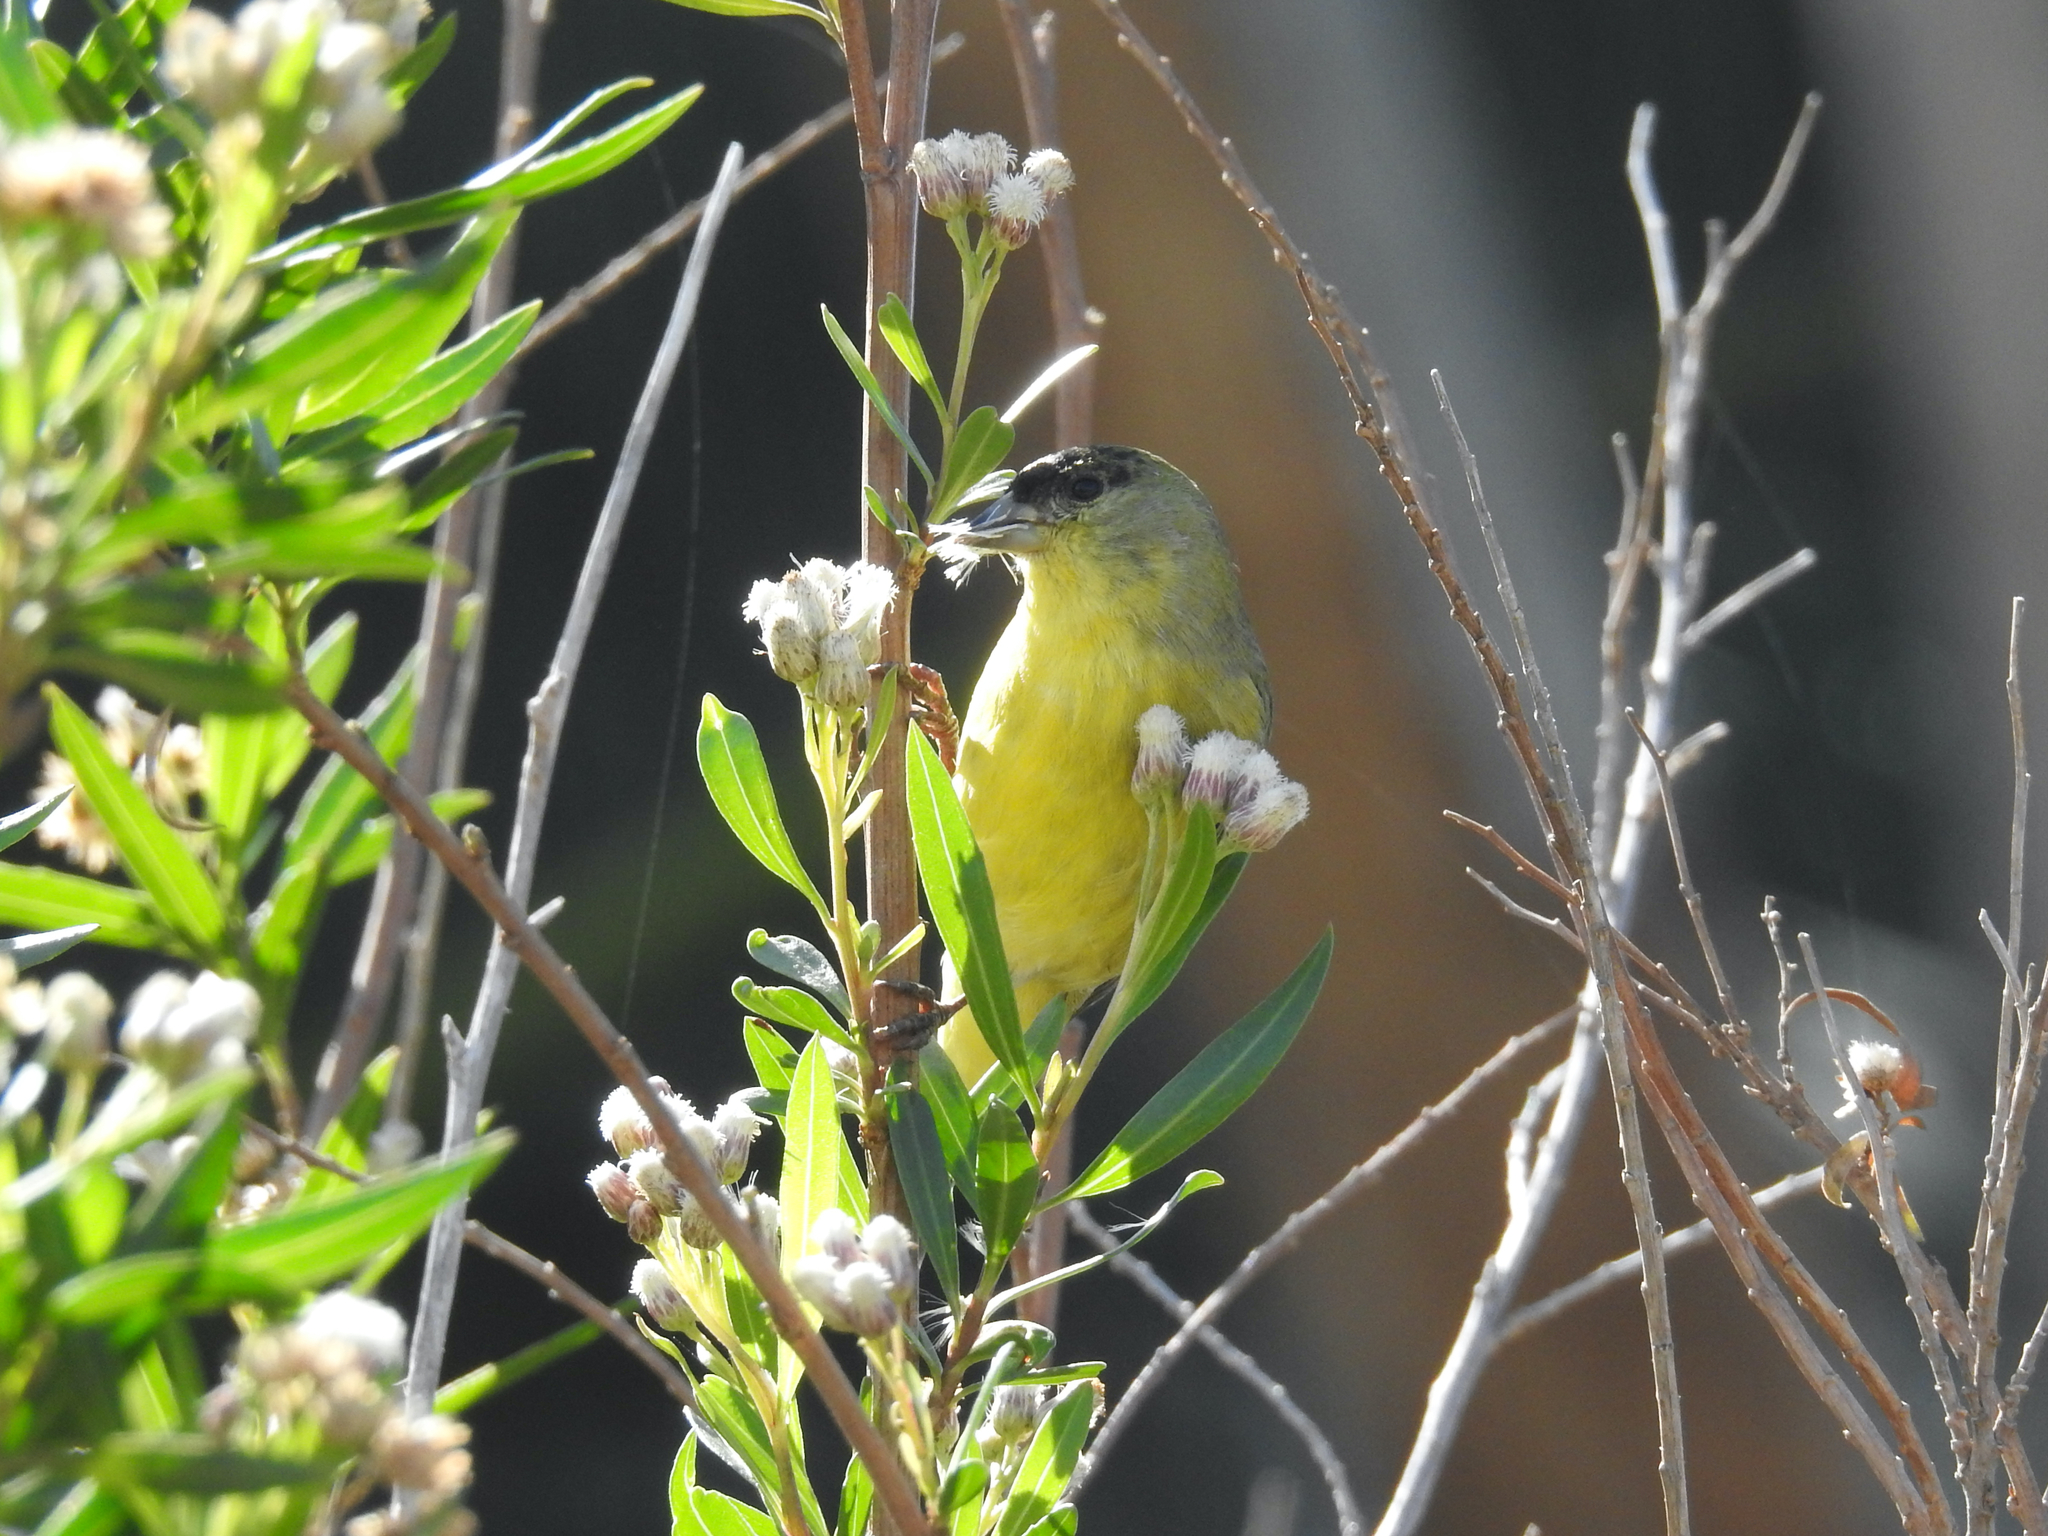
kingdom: Animalia
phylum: Chordata
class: Aves
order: Passeriformes
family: Fringillidae
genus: Spinus
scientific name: Spinus psaltria
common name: Lesser goldfinch
